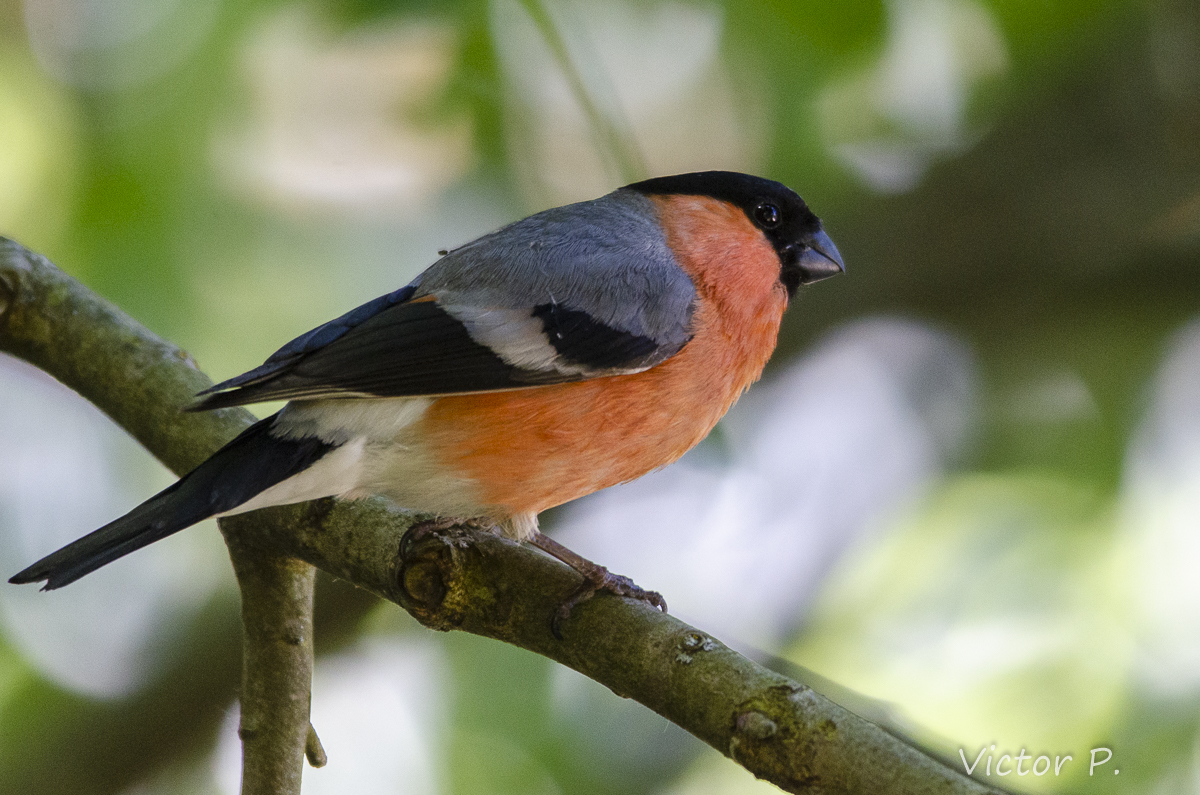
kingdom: Animalia
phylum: Chordata
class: Aves
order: Passeriformes
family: Fringillidae
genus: Pyrrhula
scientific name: Pyrrhula pyrrhula
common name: Eurasian bullfinch
